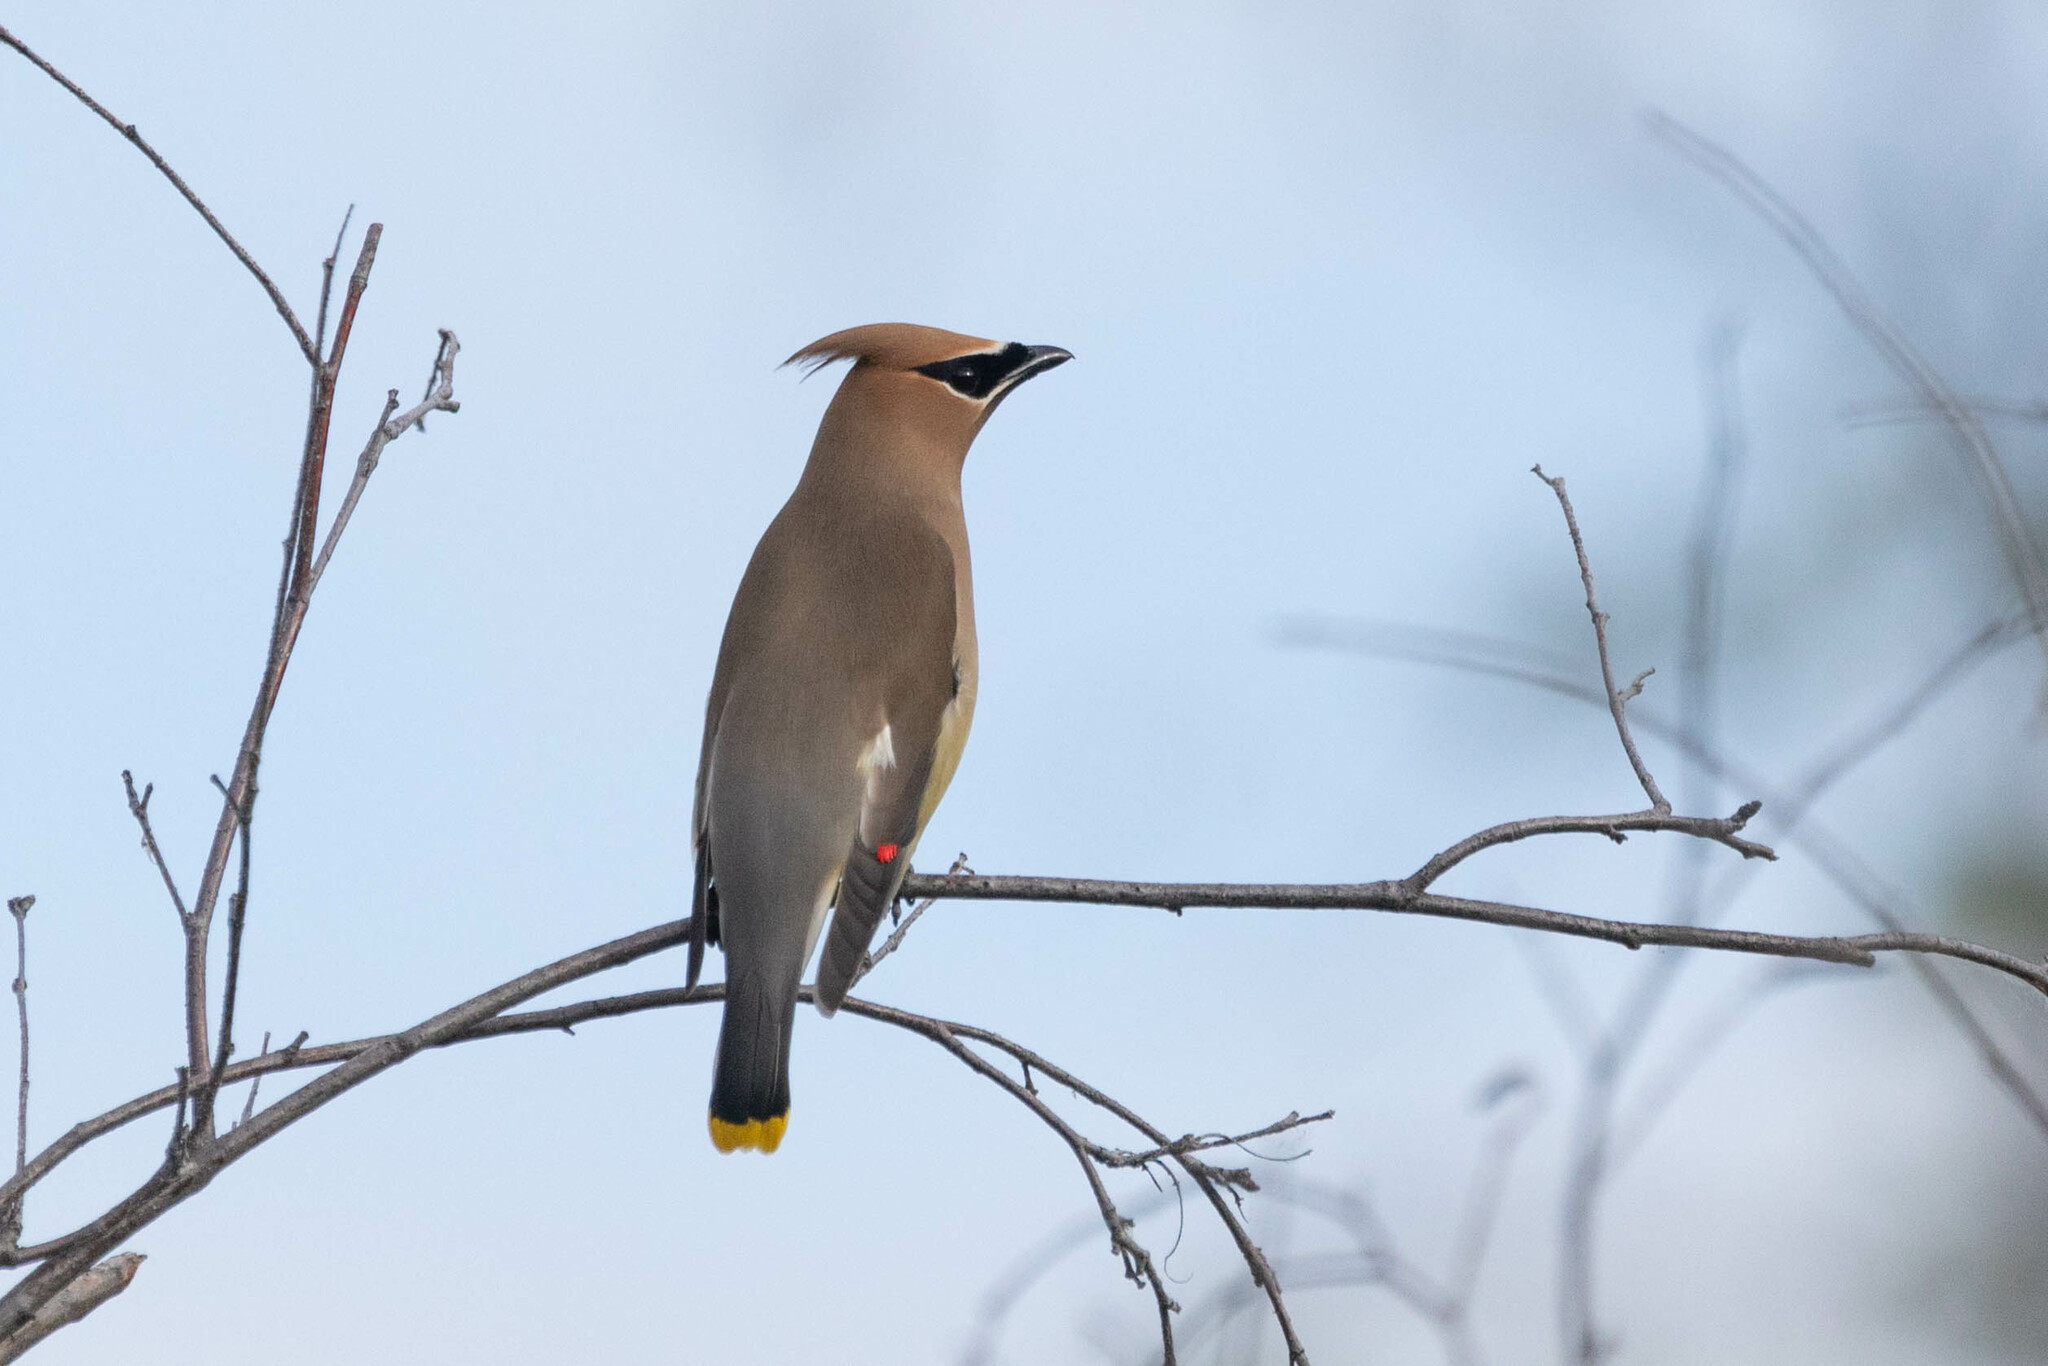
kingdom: Animalia
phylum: Chordata
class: Aves
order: Passeriformes
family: Bombycillidae
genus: Bombycilla
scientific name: Bombycilla cedrorum
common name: Cedar waxwing
